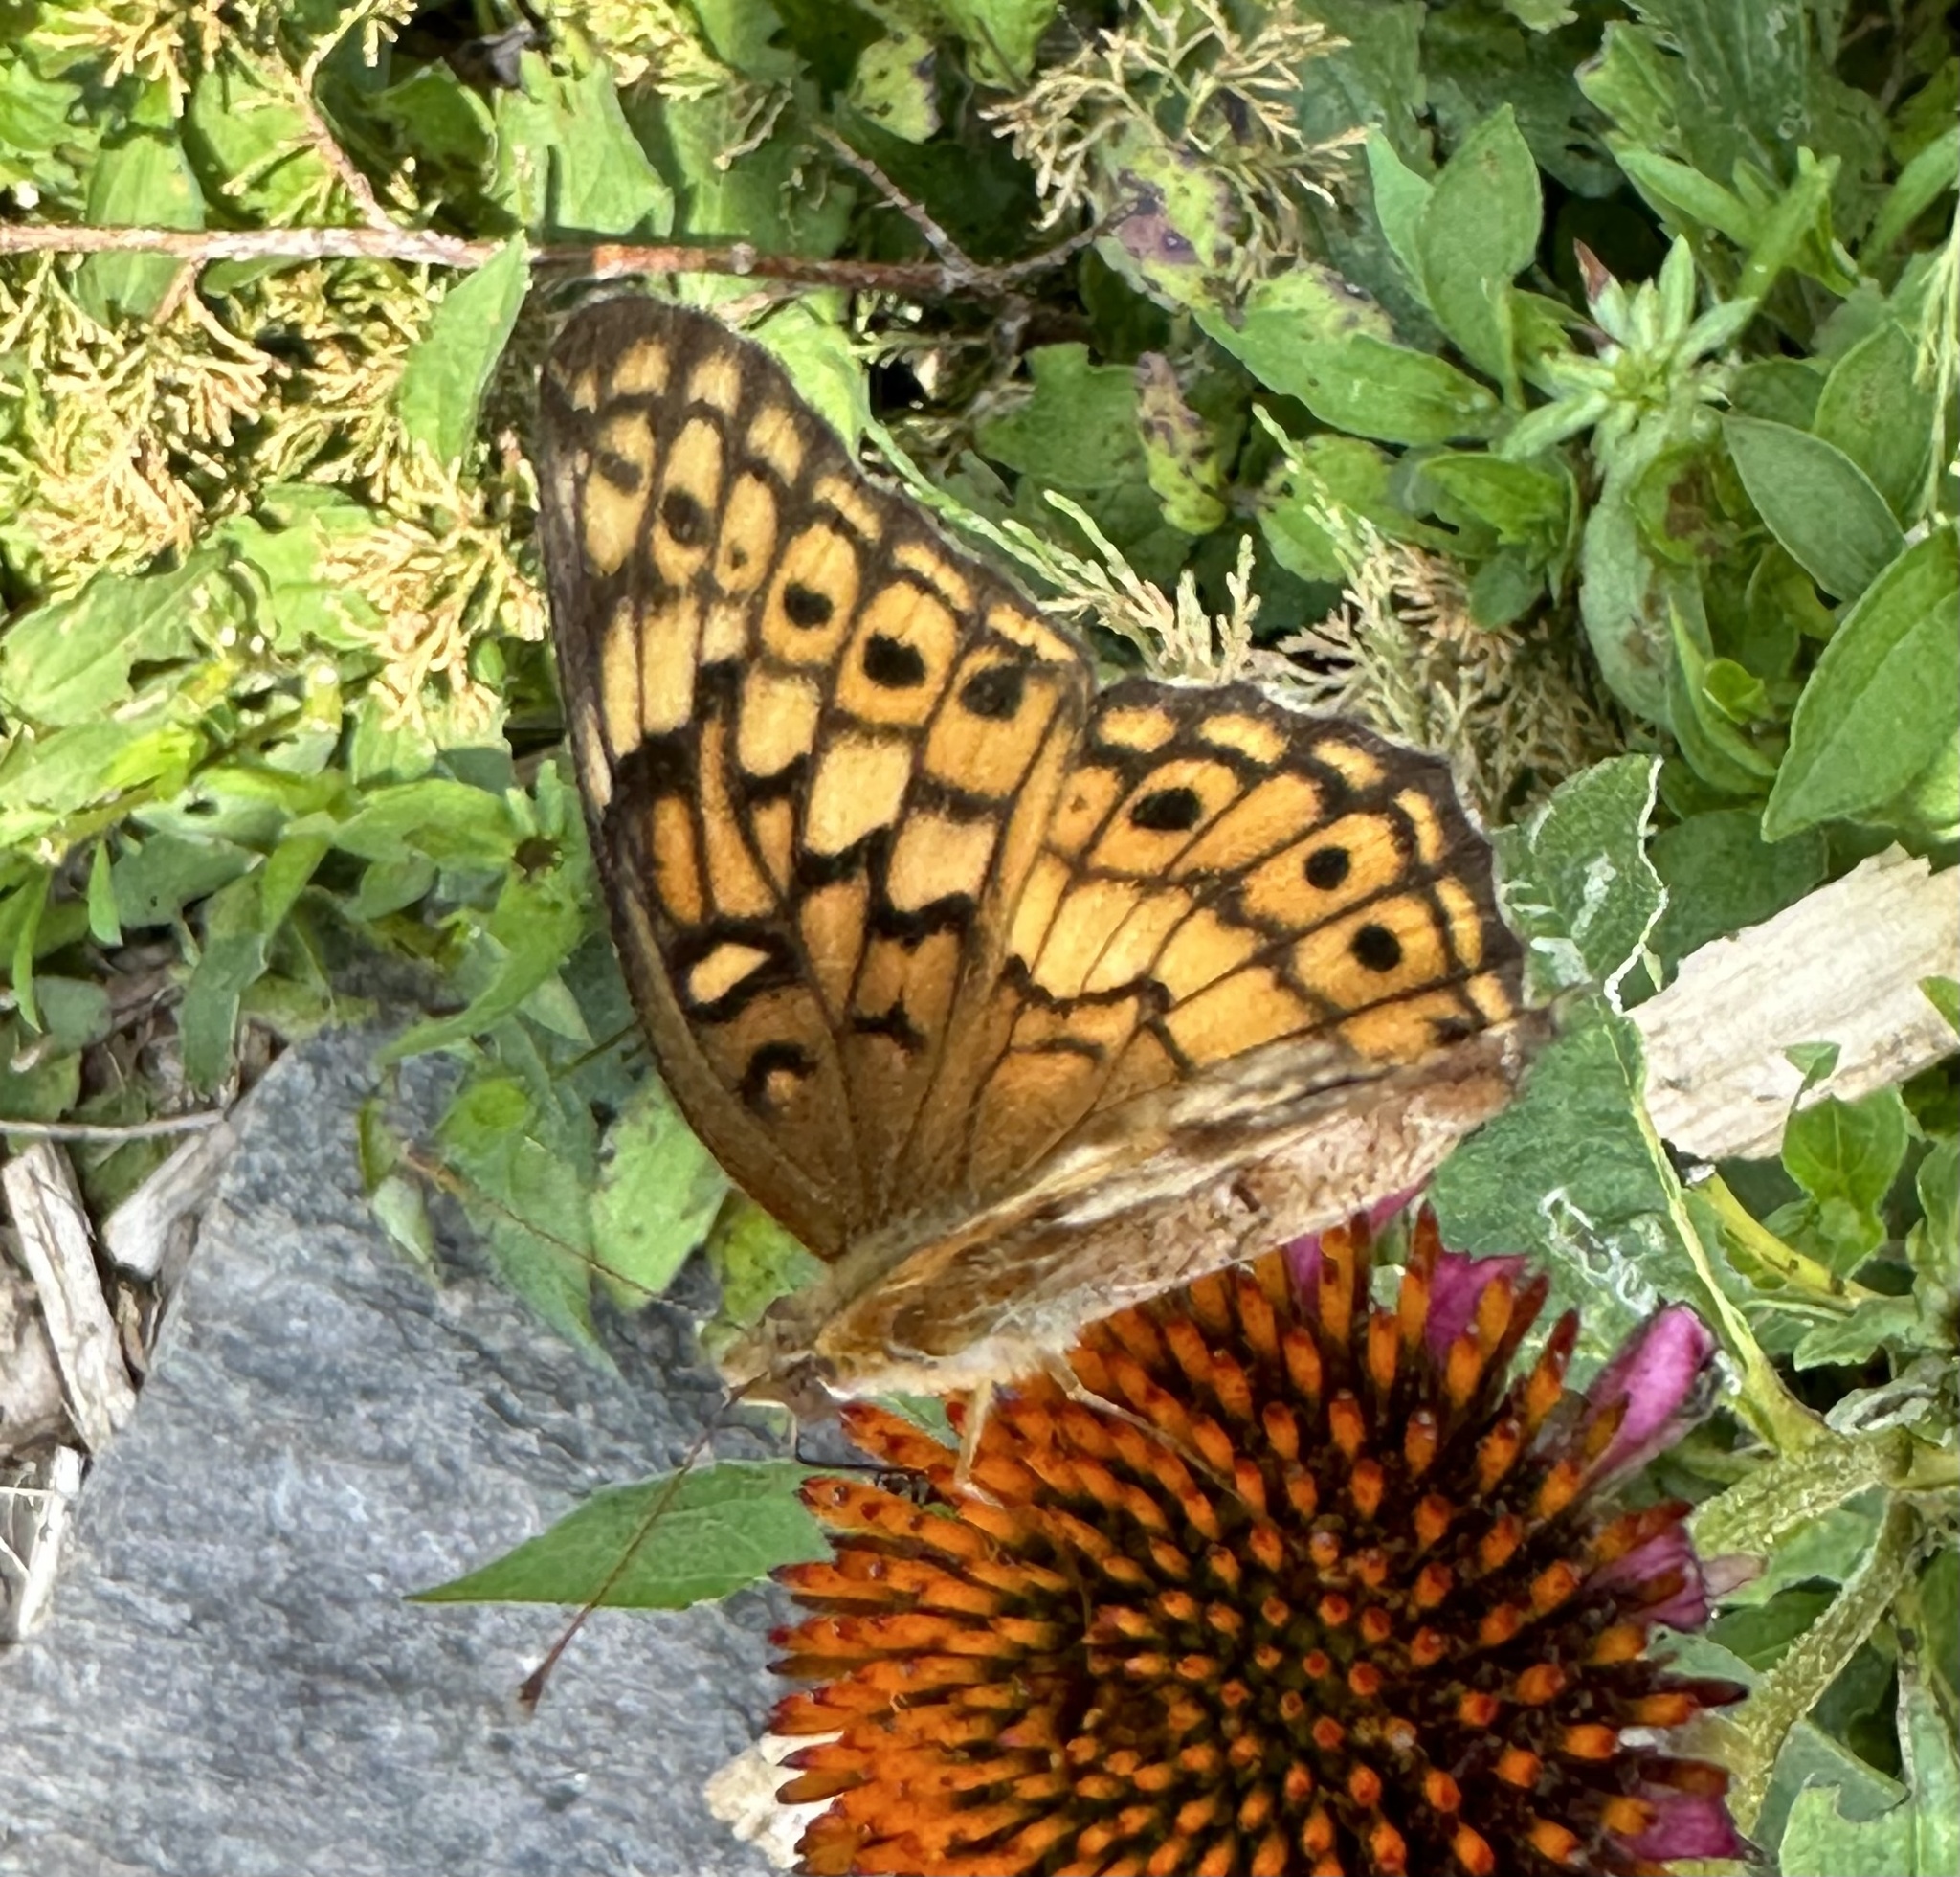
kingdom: Animalia
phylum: Arthropoda
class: Insecta
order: Lepidoptera
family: Nymphalidae
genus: Euptoieta
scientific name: Euptoieta claudia
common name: Variegated fritillary
